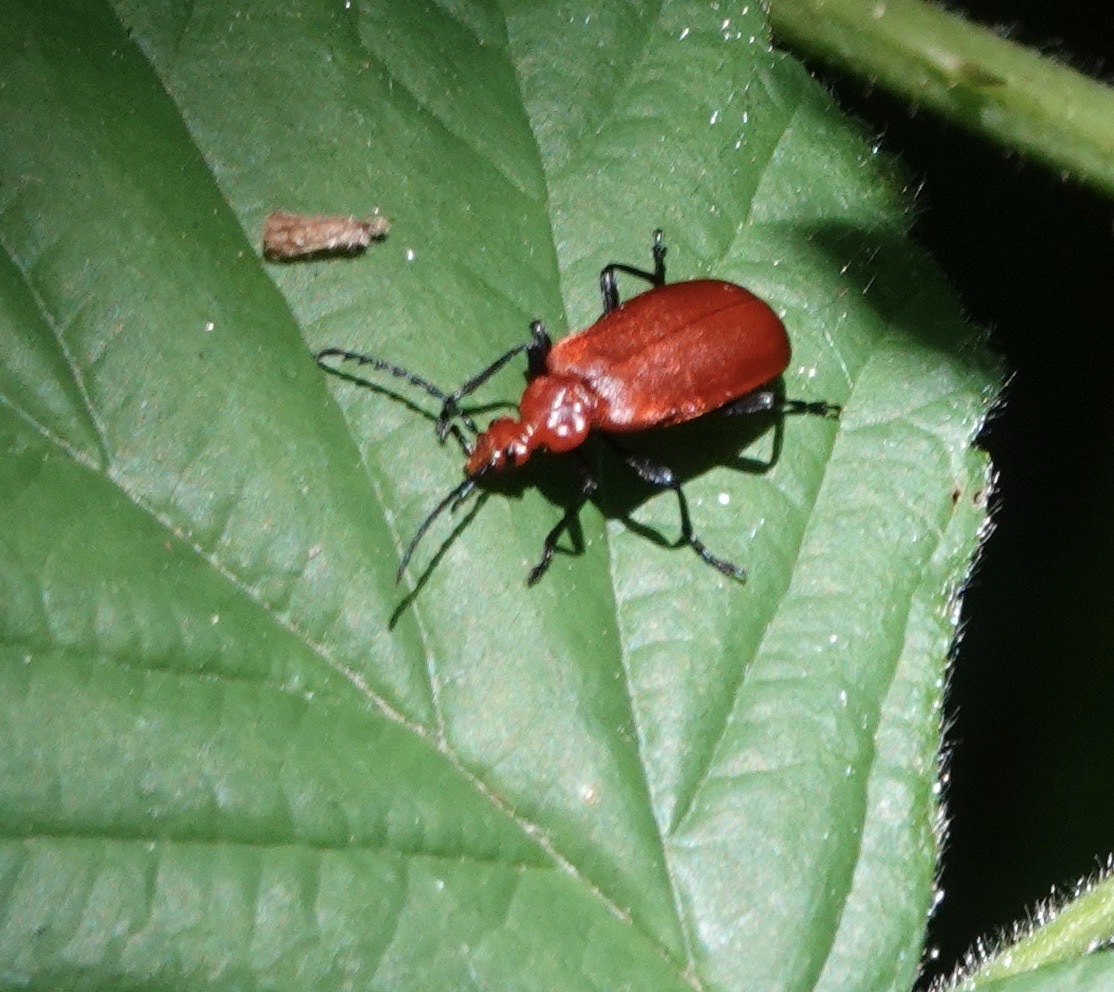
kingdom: Animalia
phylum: Arthropoda
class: Insecta
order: Coleoptera
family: Pyrochroidae
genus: Pyrochroa
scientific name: Pyrochroa serraticornis
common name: Red-headed cardinal beetle
